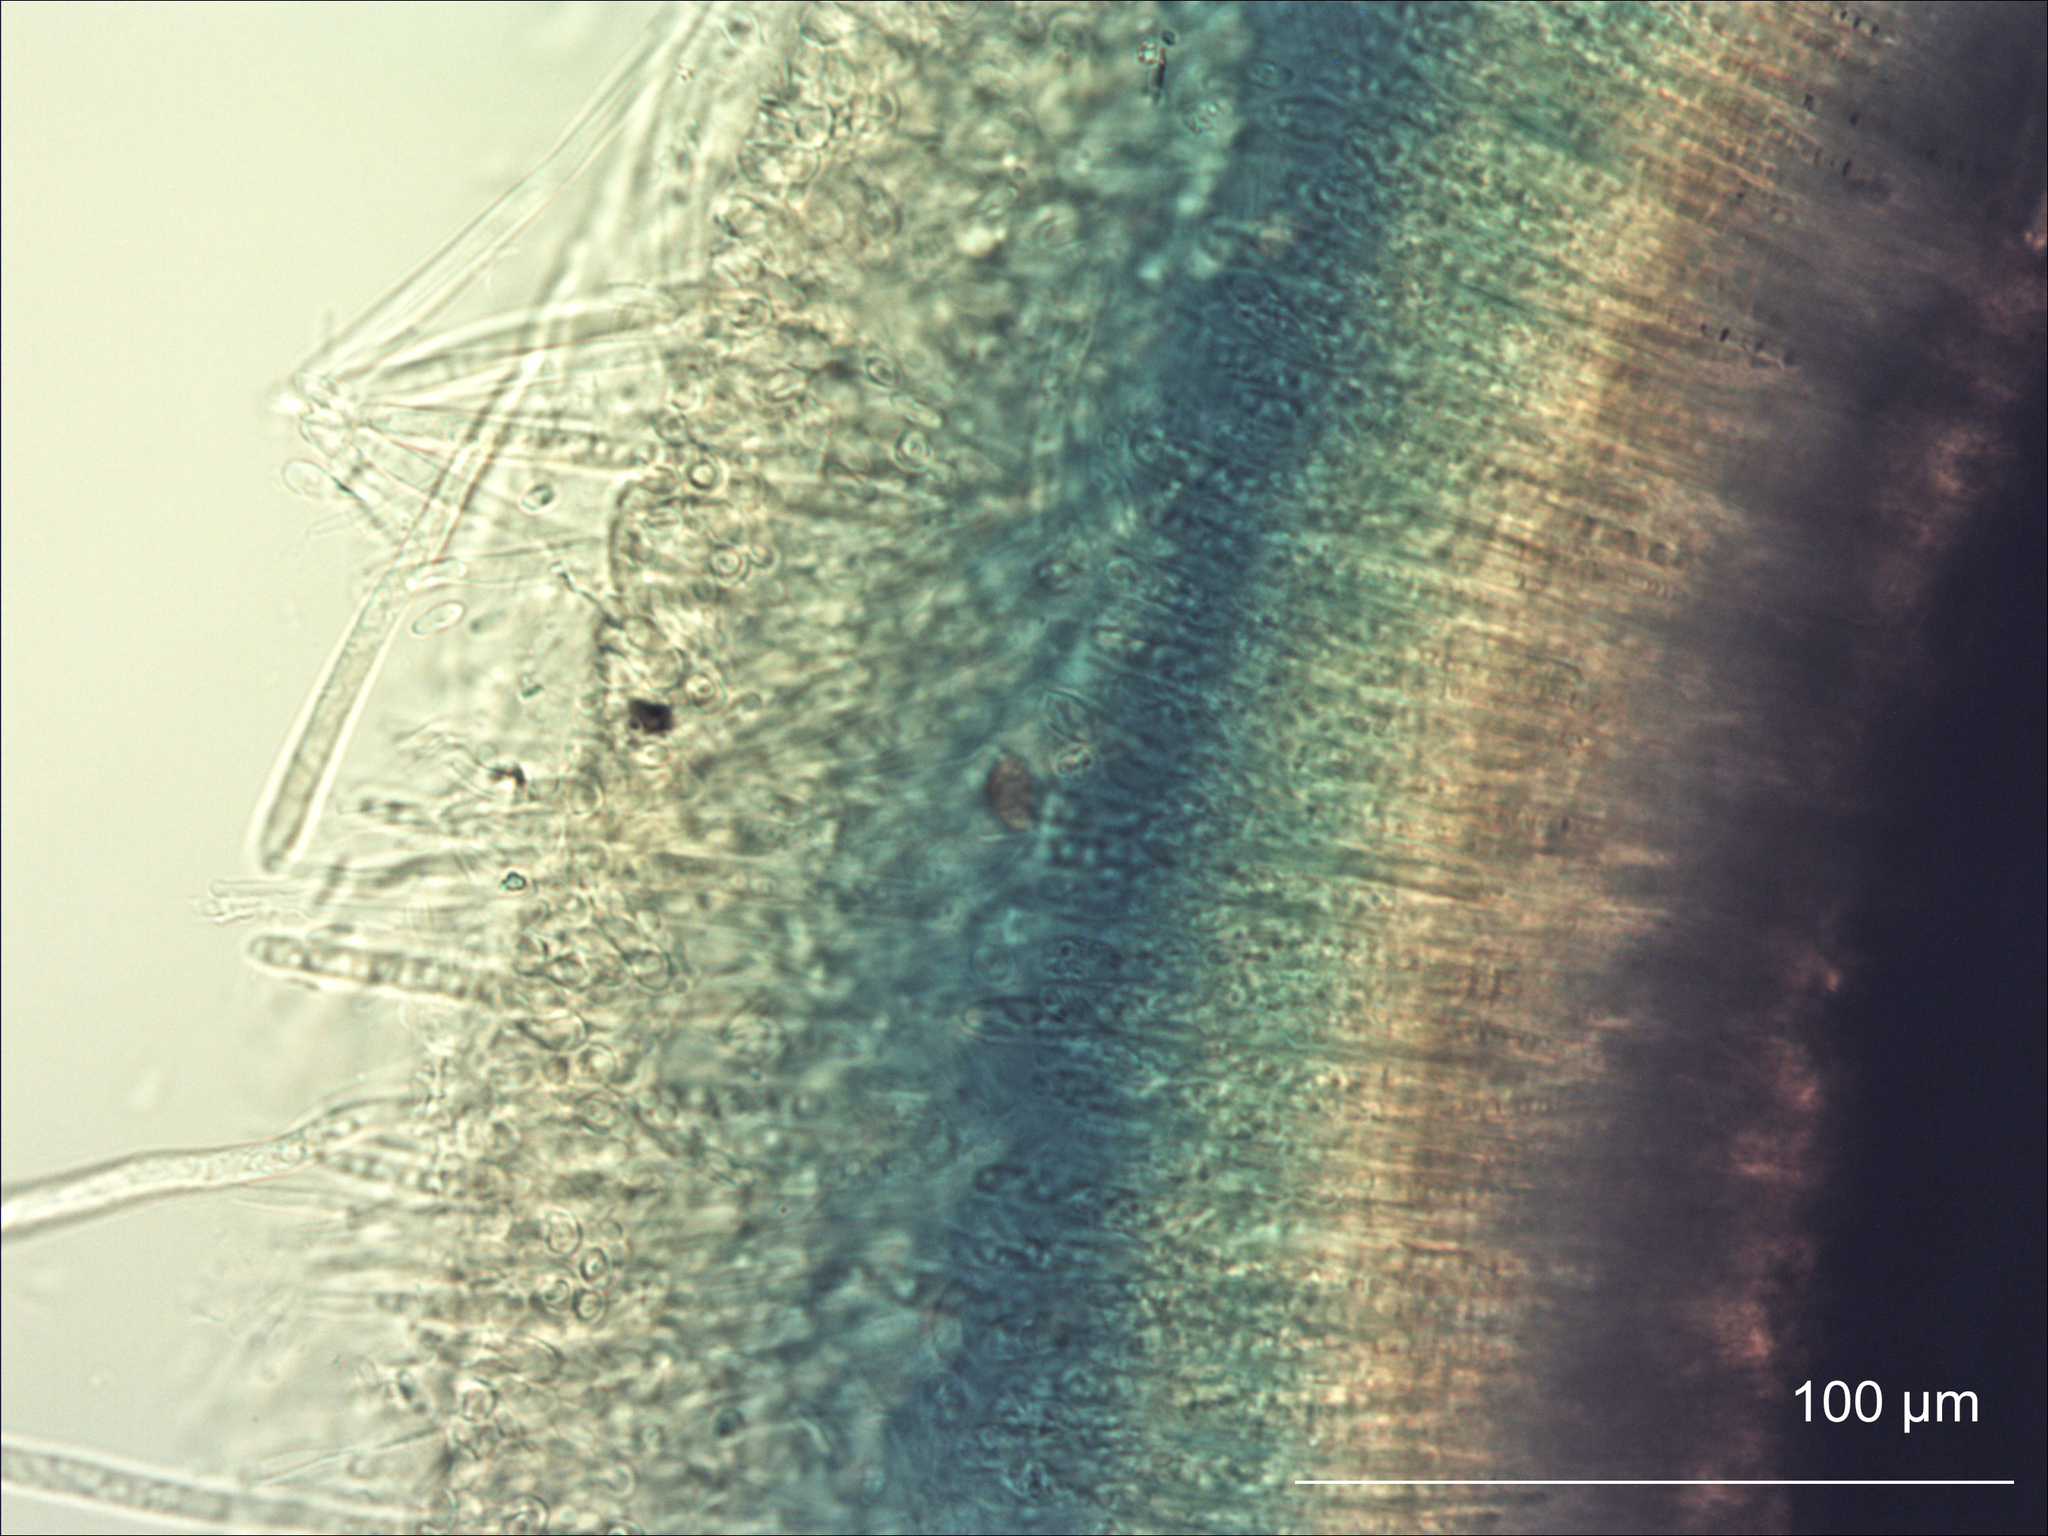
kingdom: Fungi
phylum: Ascomycota
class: Leotiomycetes
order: Helotiales
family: Cenangiaceae
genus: Chlorencoelia
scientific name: Chlorencoelia torta
